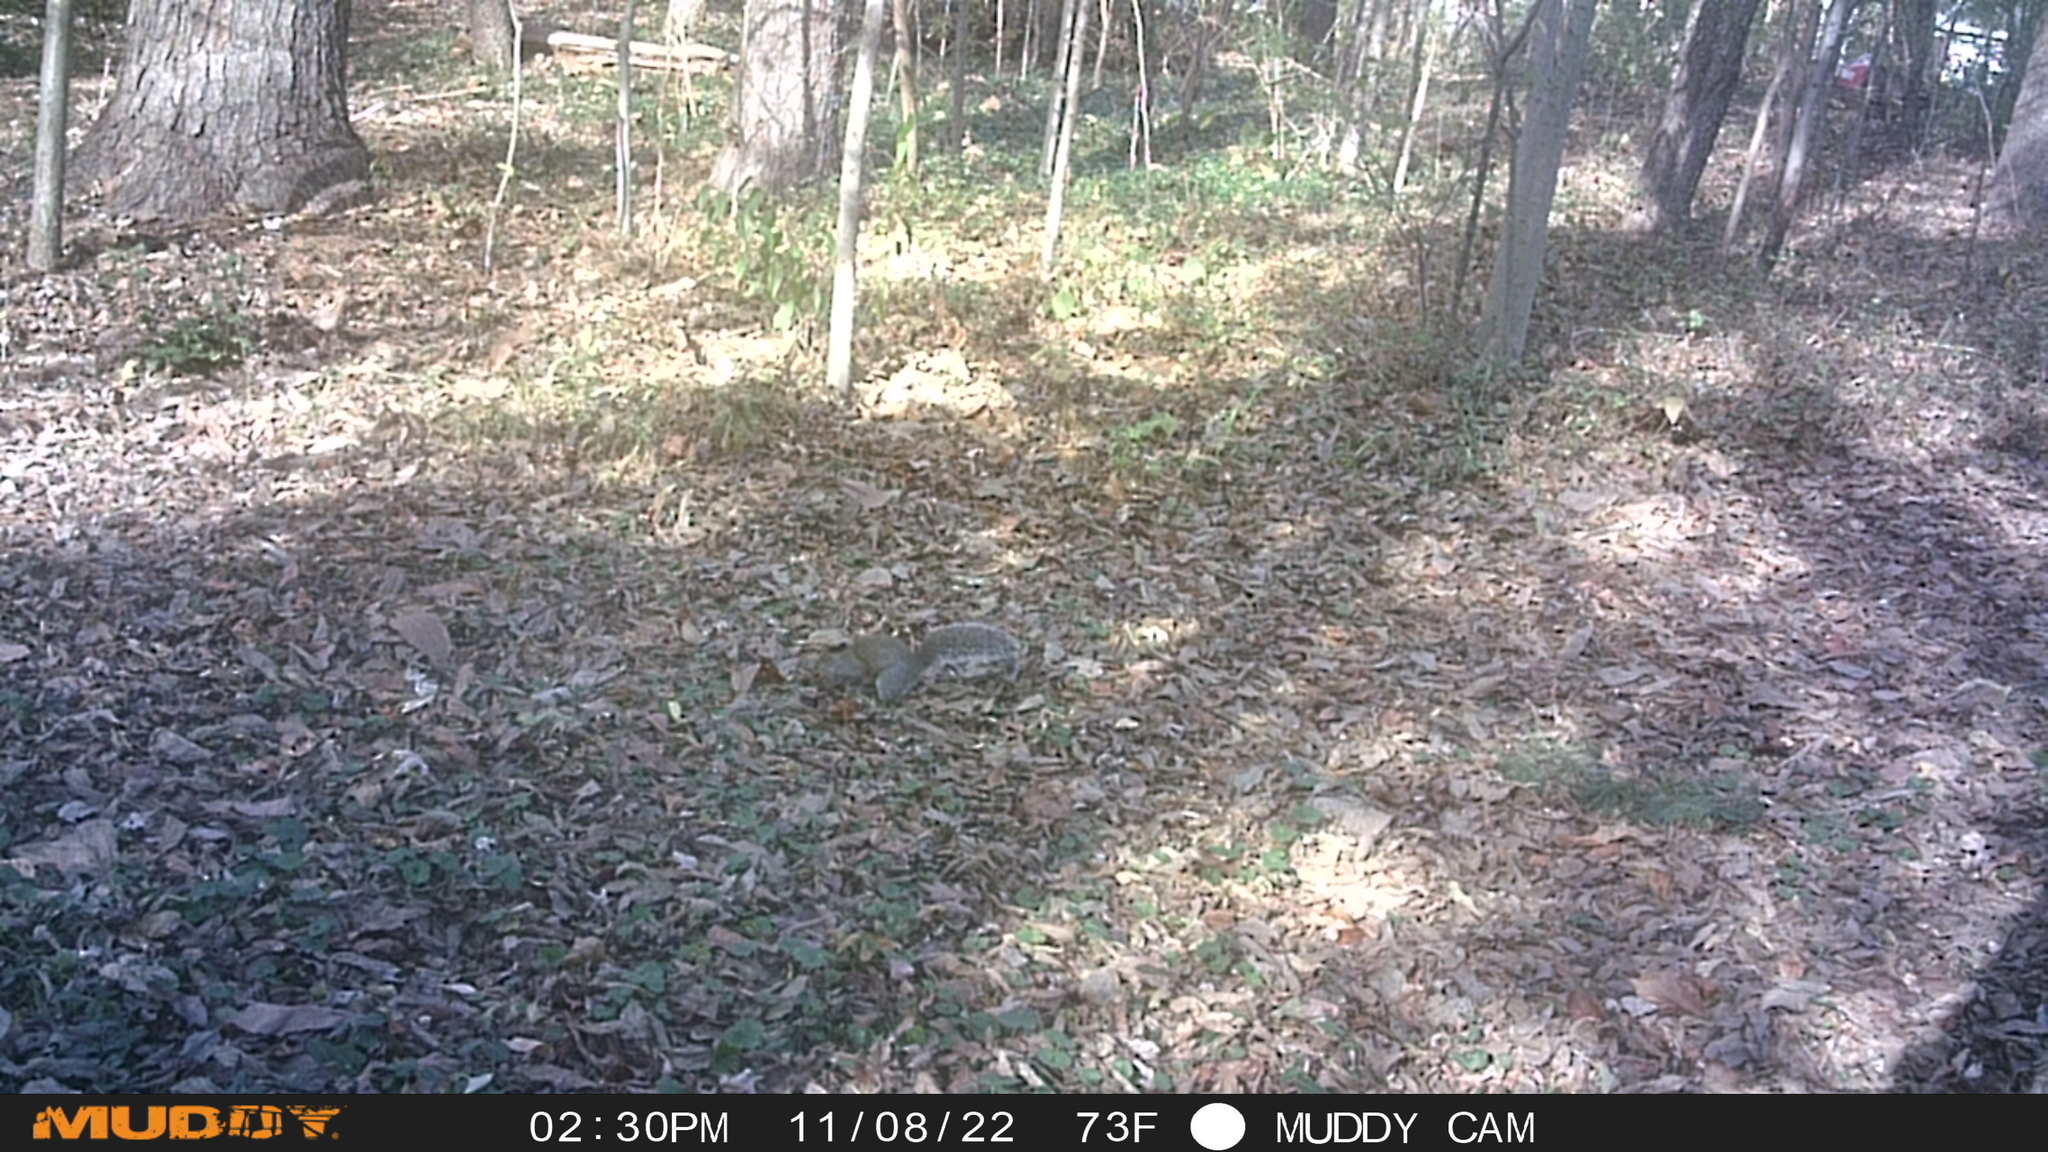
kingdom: Animalia
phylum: Chordata
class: Mammalia
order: Rodentia
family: Sciuridae
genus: Sciurus
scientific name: Sciurus carolinensis
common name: Eastern gray squirrel
